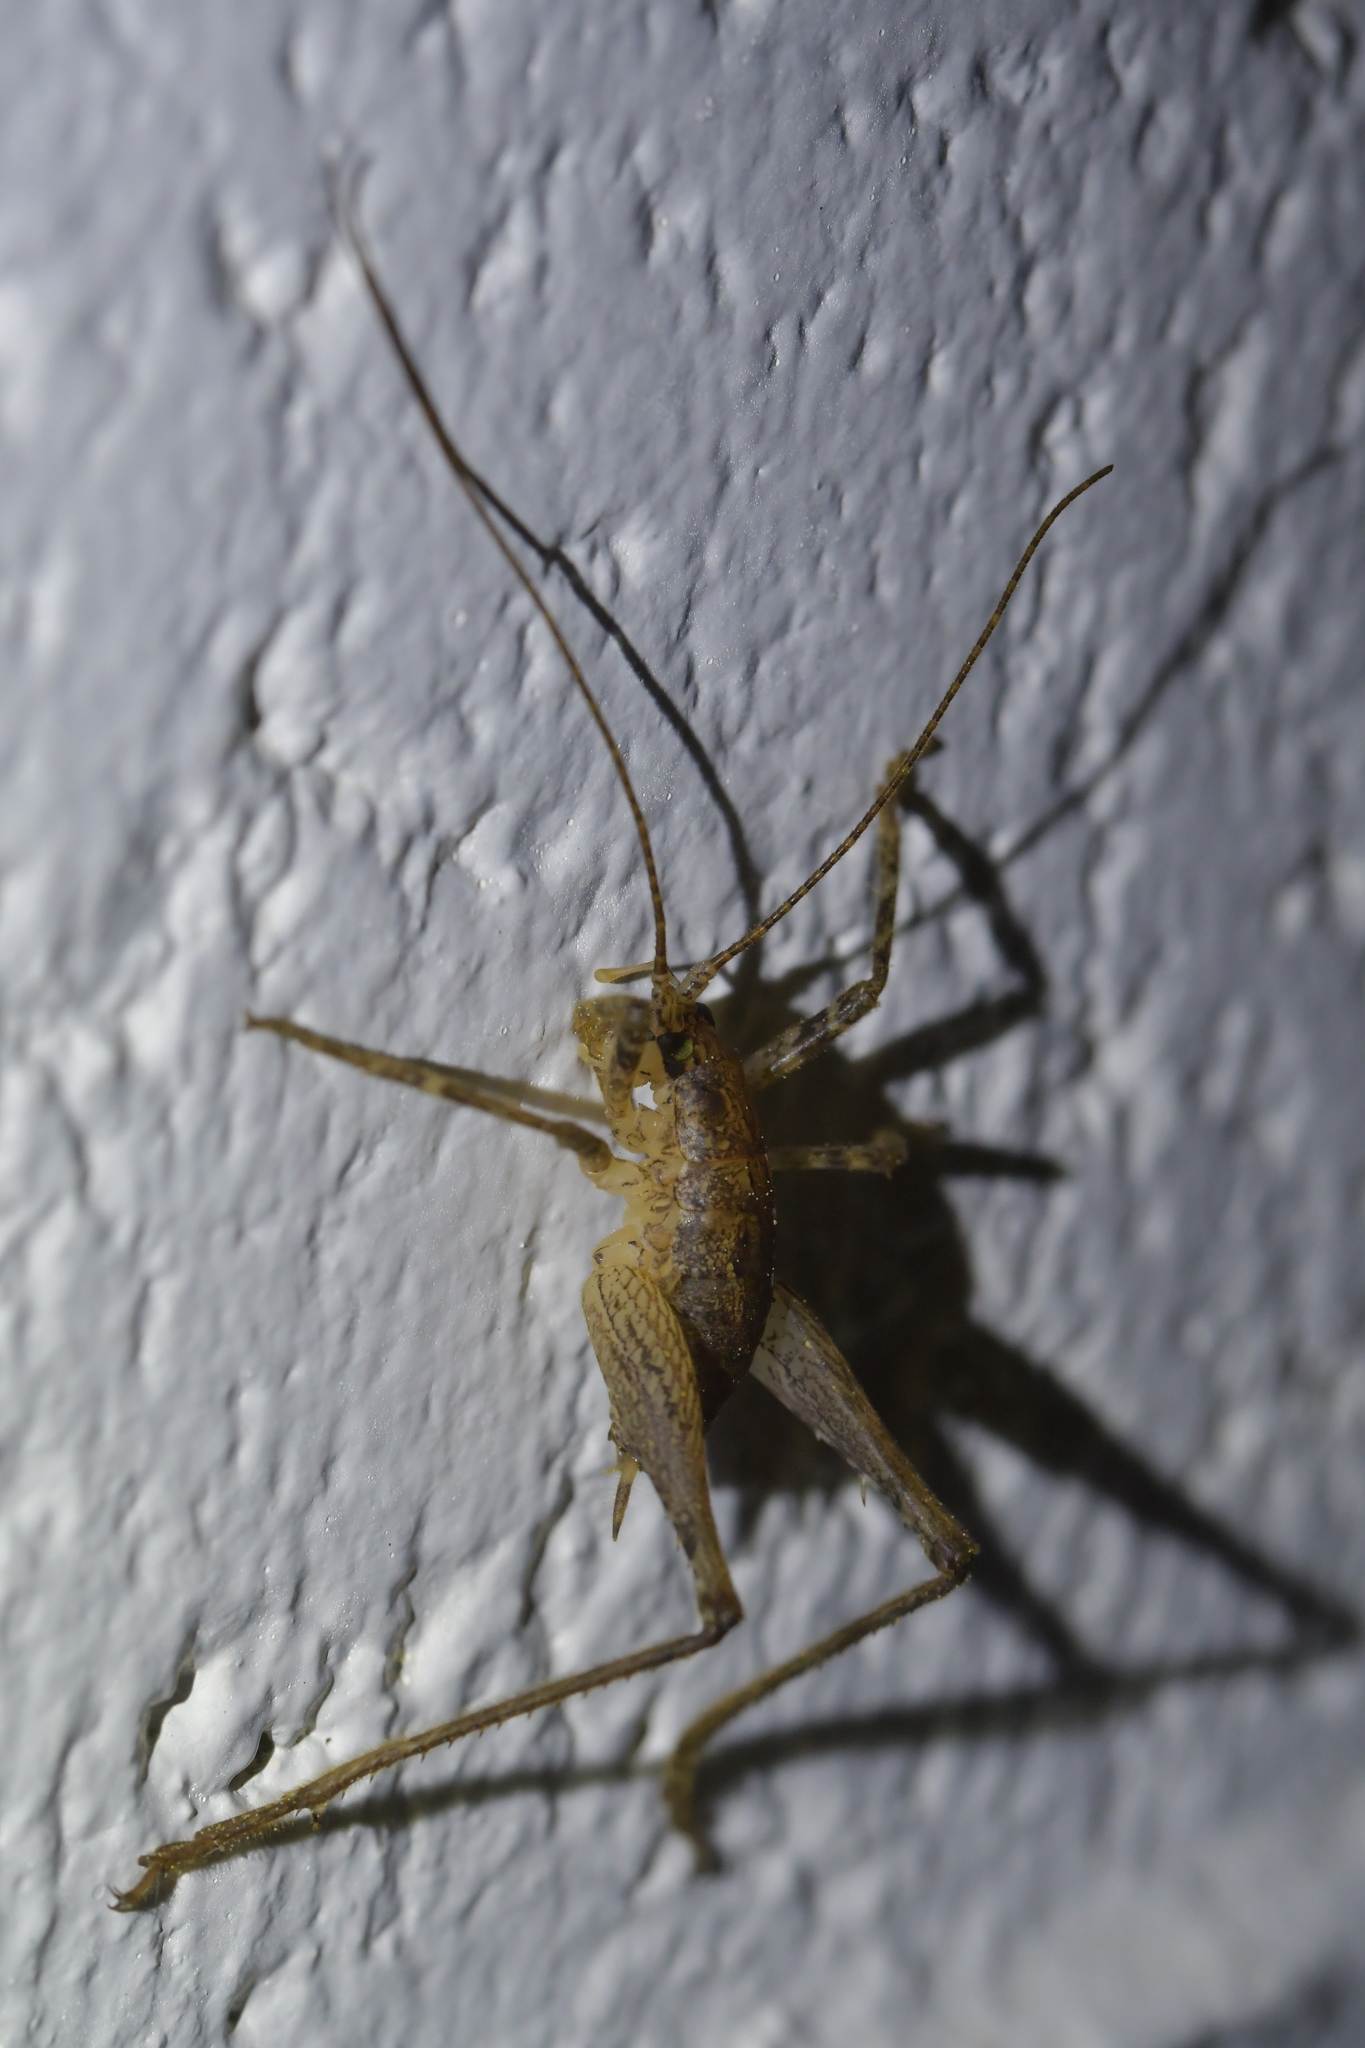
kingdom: Animalia
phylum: Arthropoda
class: Insecta
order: Orthoptera
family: Rhaphidophoridae
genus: Isoplectron
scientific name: Isoplectron armatum
